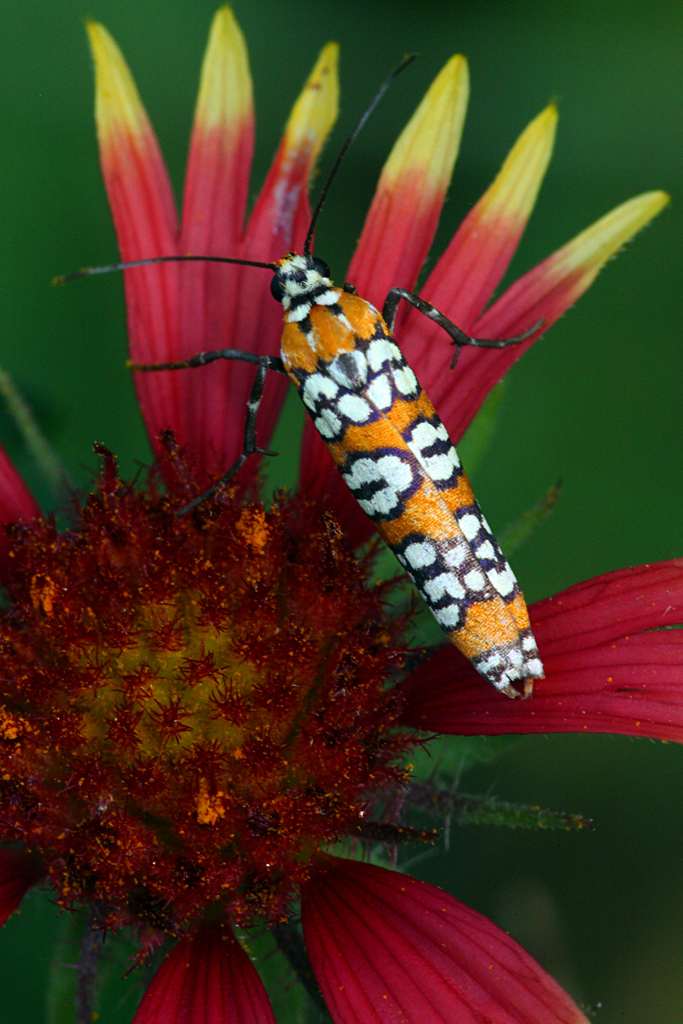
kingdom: Animalia
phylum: Arthropoda
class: Insecta
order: Lepidoptera
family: Attevidae
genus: Atteva
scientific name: Atteva punctella
